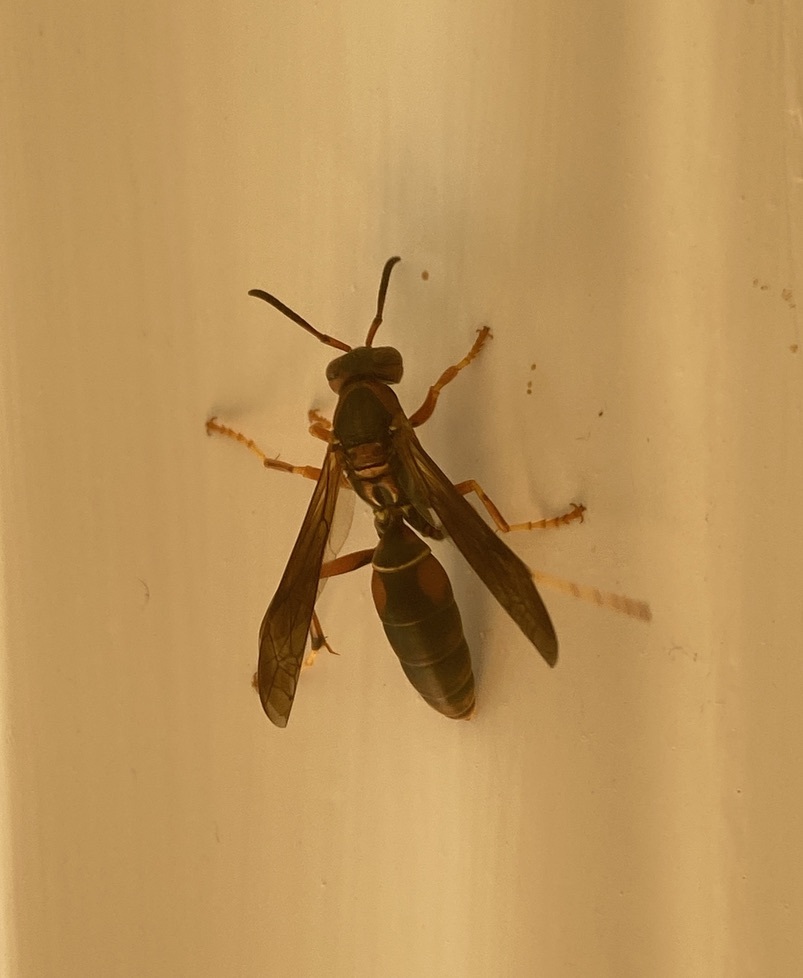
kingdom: Animalia
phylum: Arthropoda
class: Insecta
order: Hymenoptera
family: Eumenidae
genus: Polistes
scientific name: Polistes fuscatus
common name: Dark paper wasp
